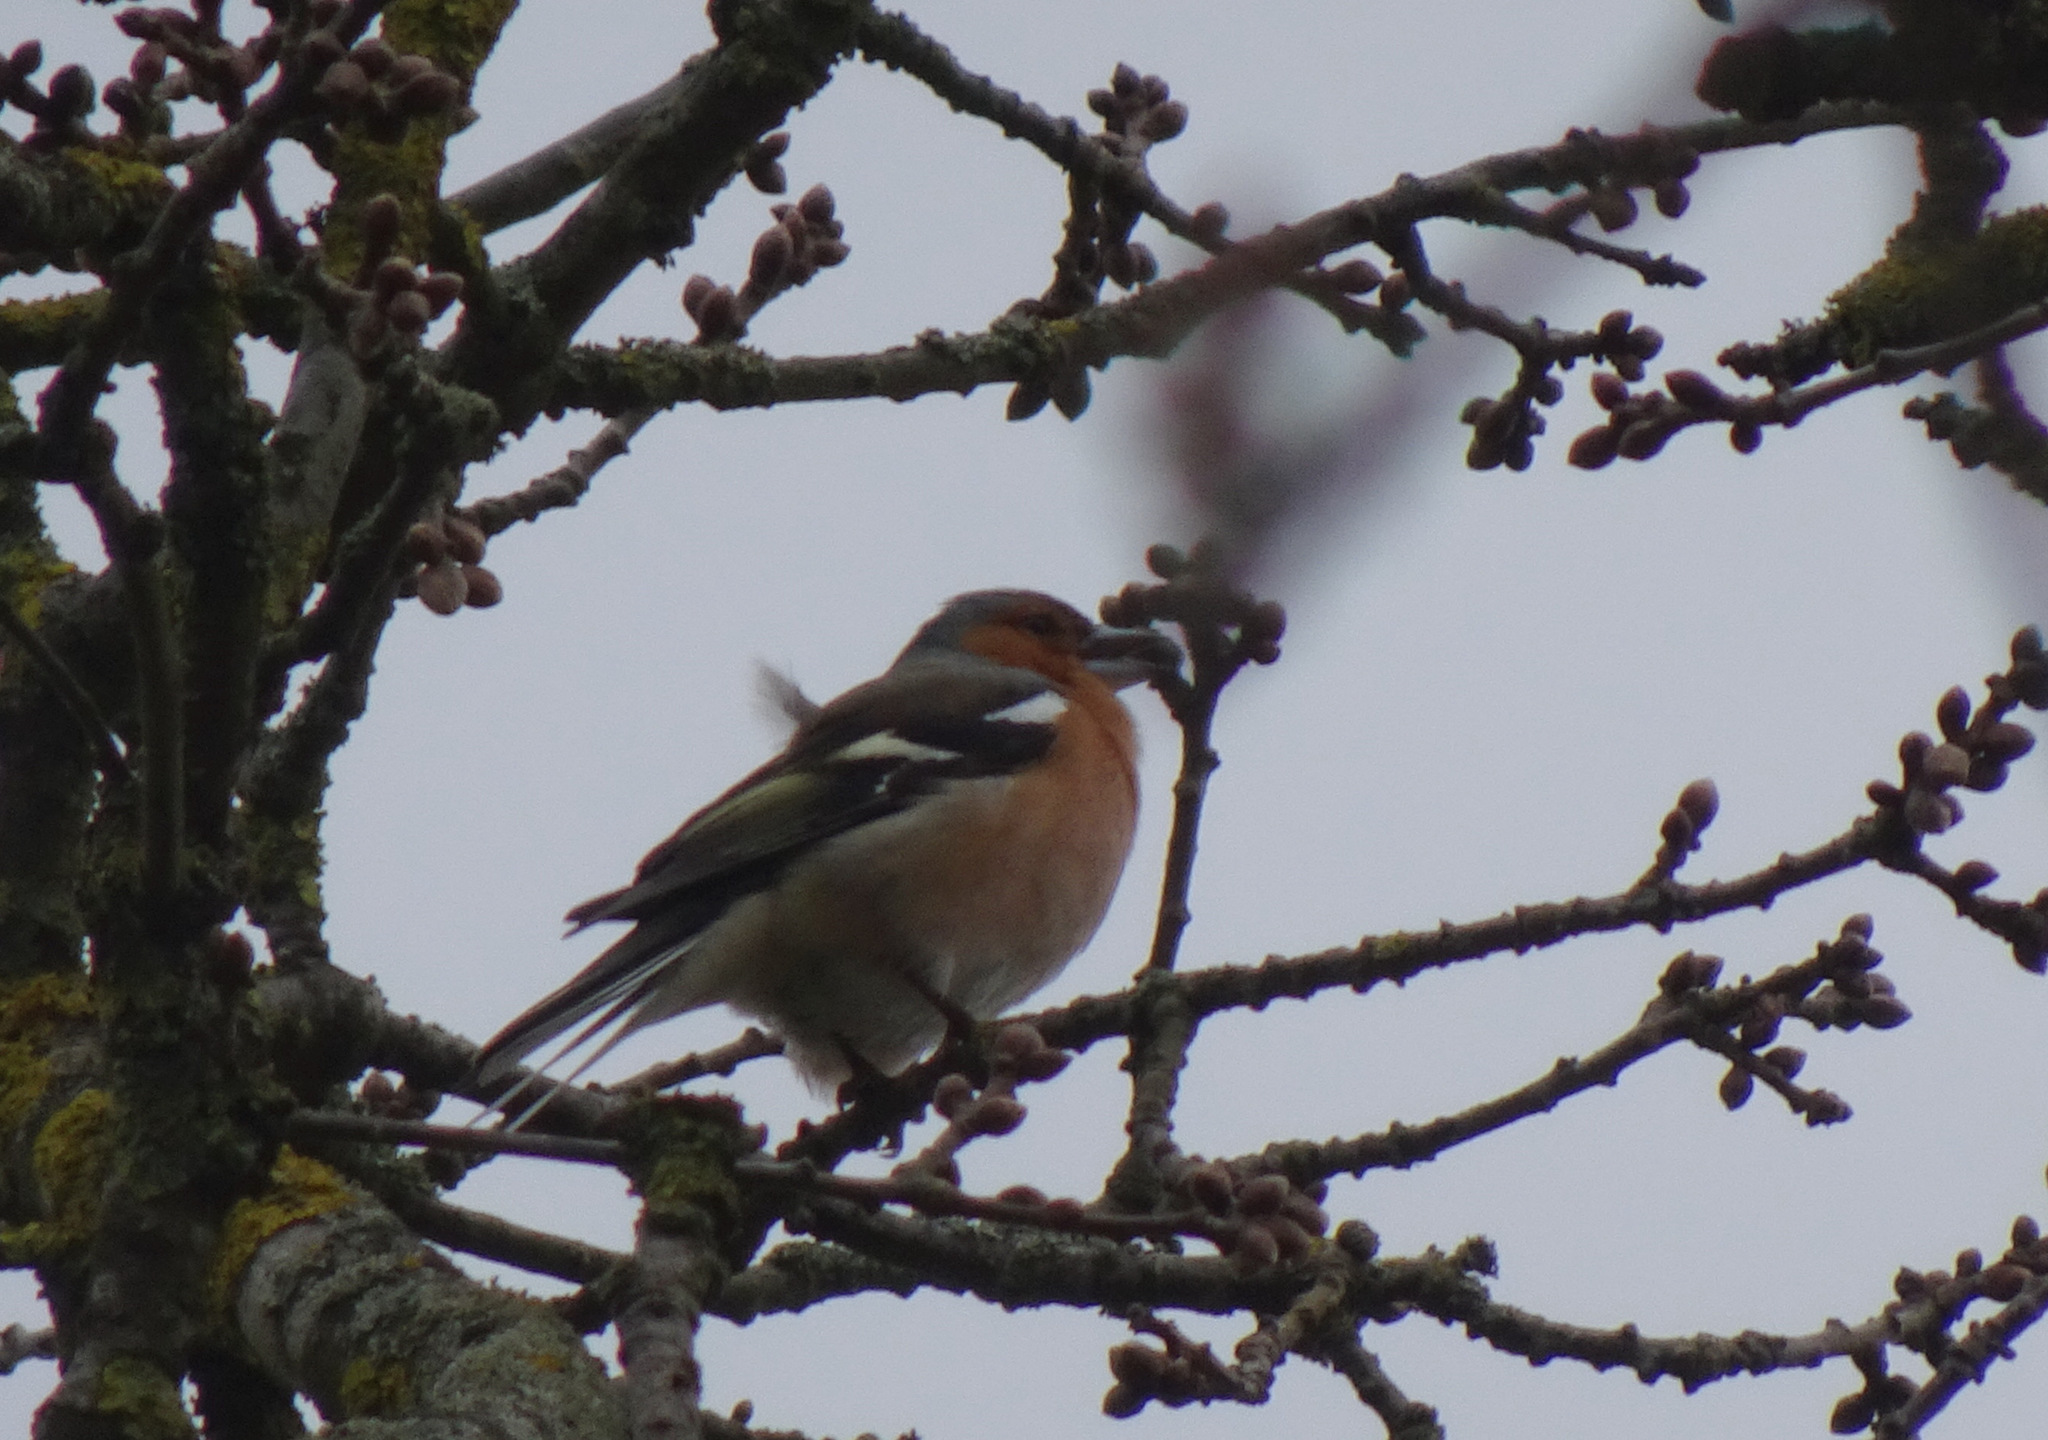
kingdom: Animalia
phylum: Chordata
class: Aves
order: Passeriformes
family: Fringillidae
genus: Fringilla
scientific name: Fringilla coelebs
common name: Common chaffinch
